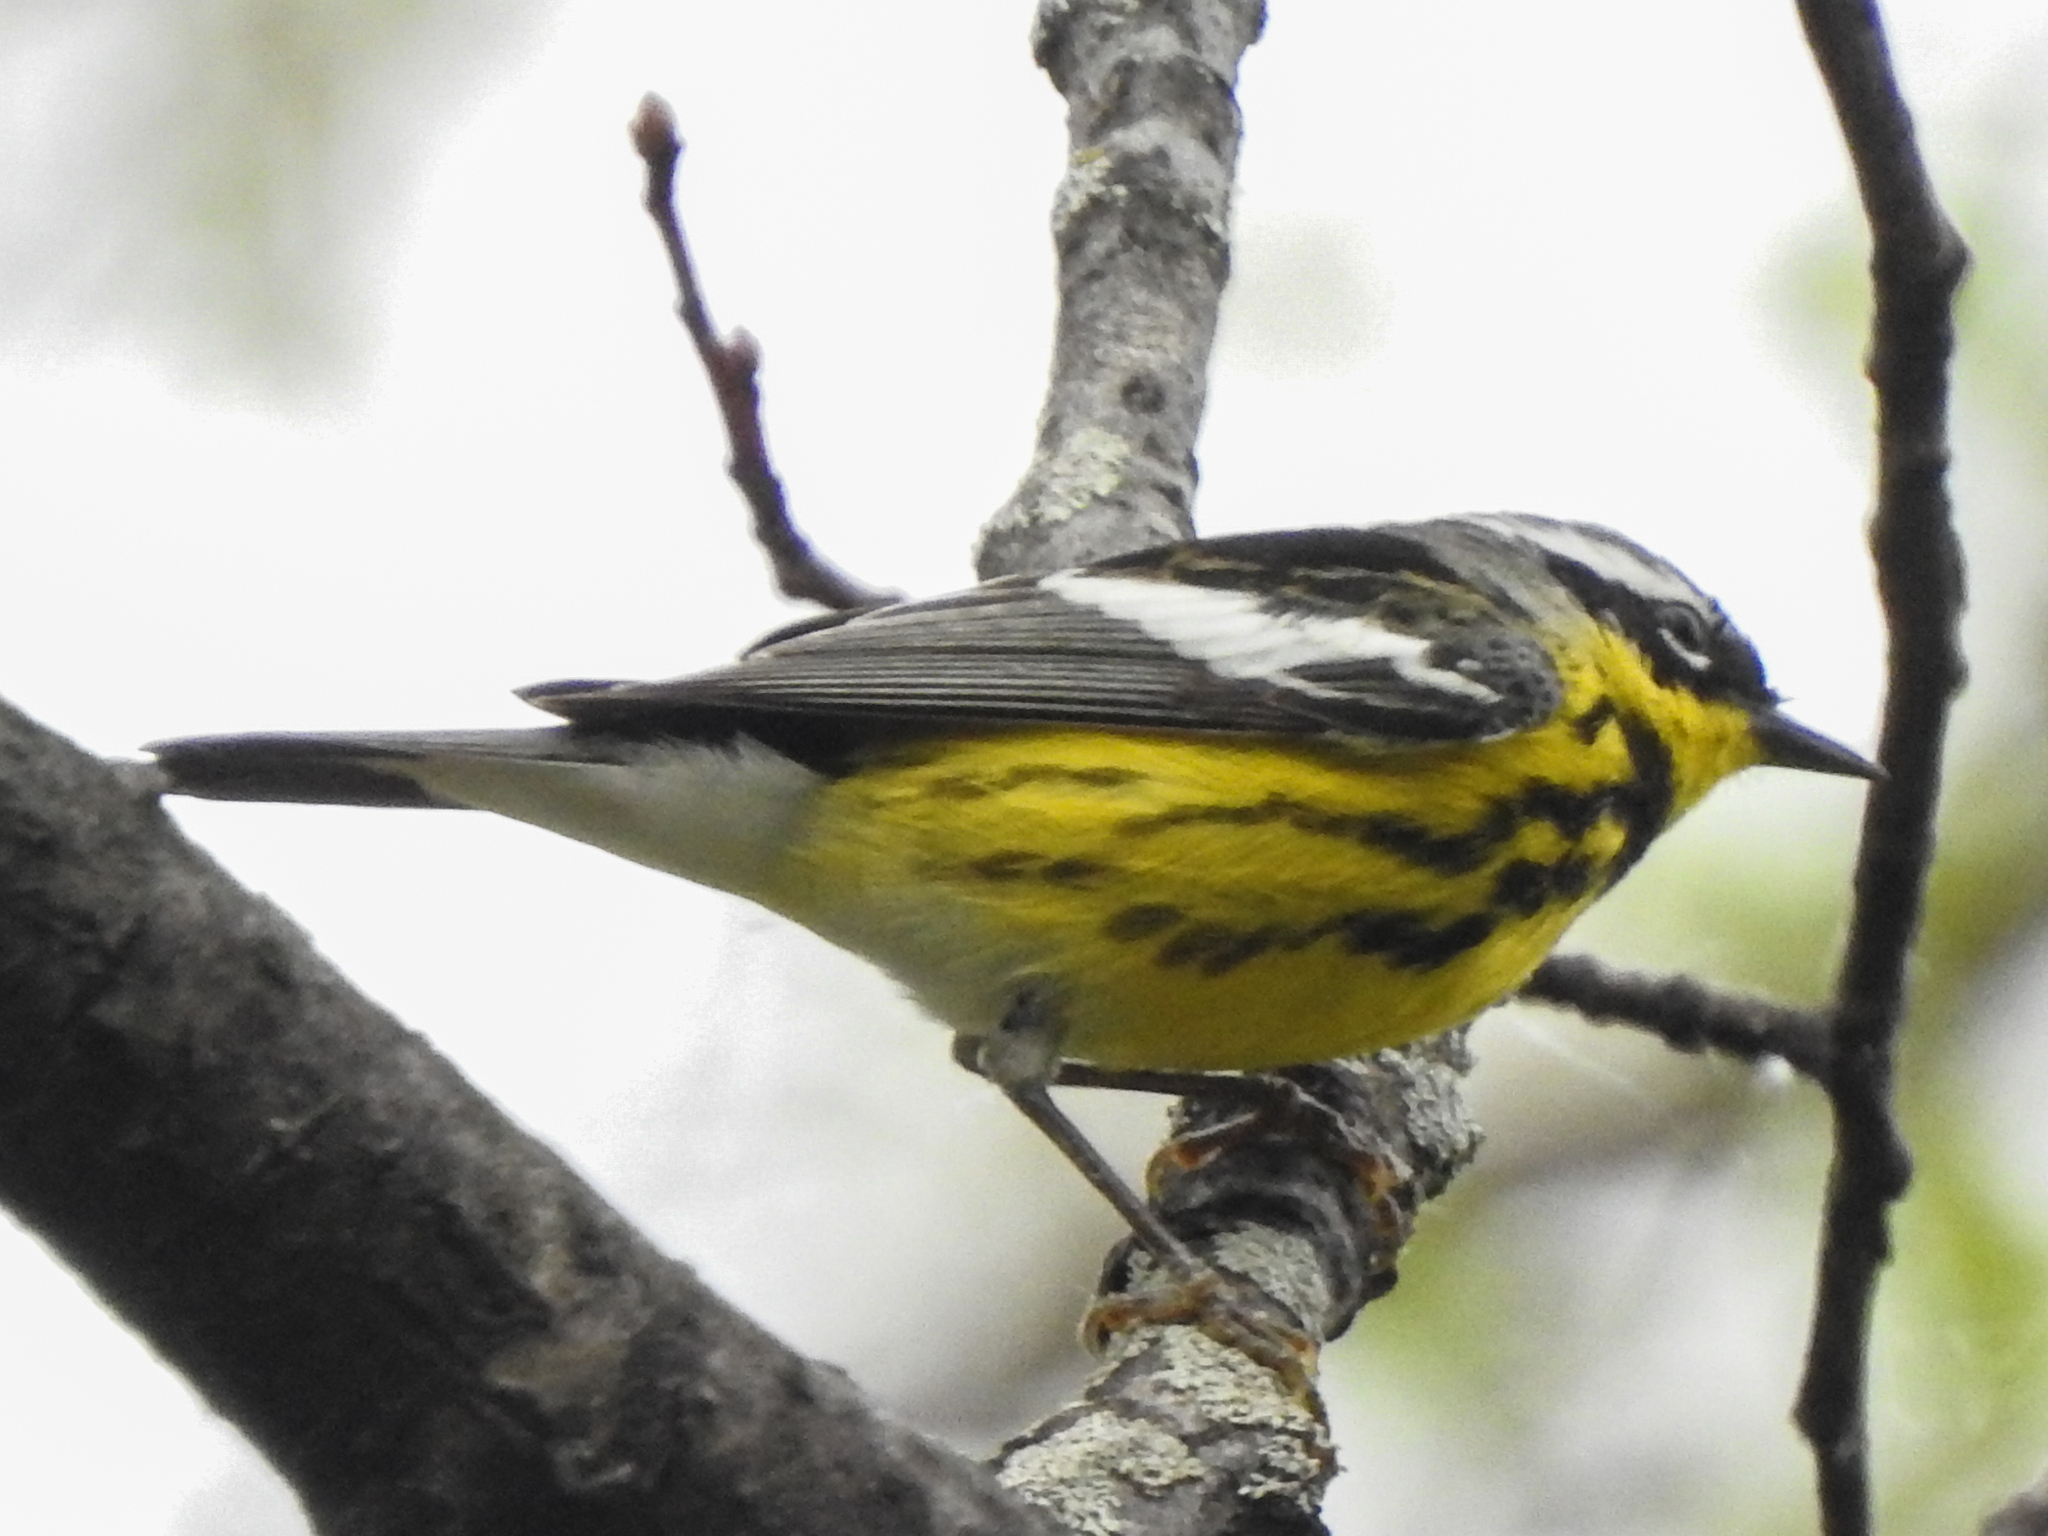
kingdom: Animalia
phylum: Chordata
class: Aves
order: Passeriformes
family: Parulidae
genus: Setophaga
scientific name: Setophaga magnolia
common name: Magnolia warbler
